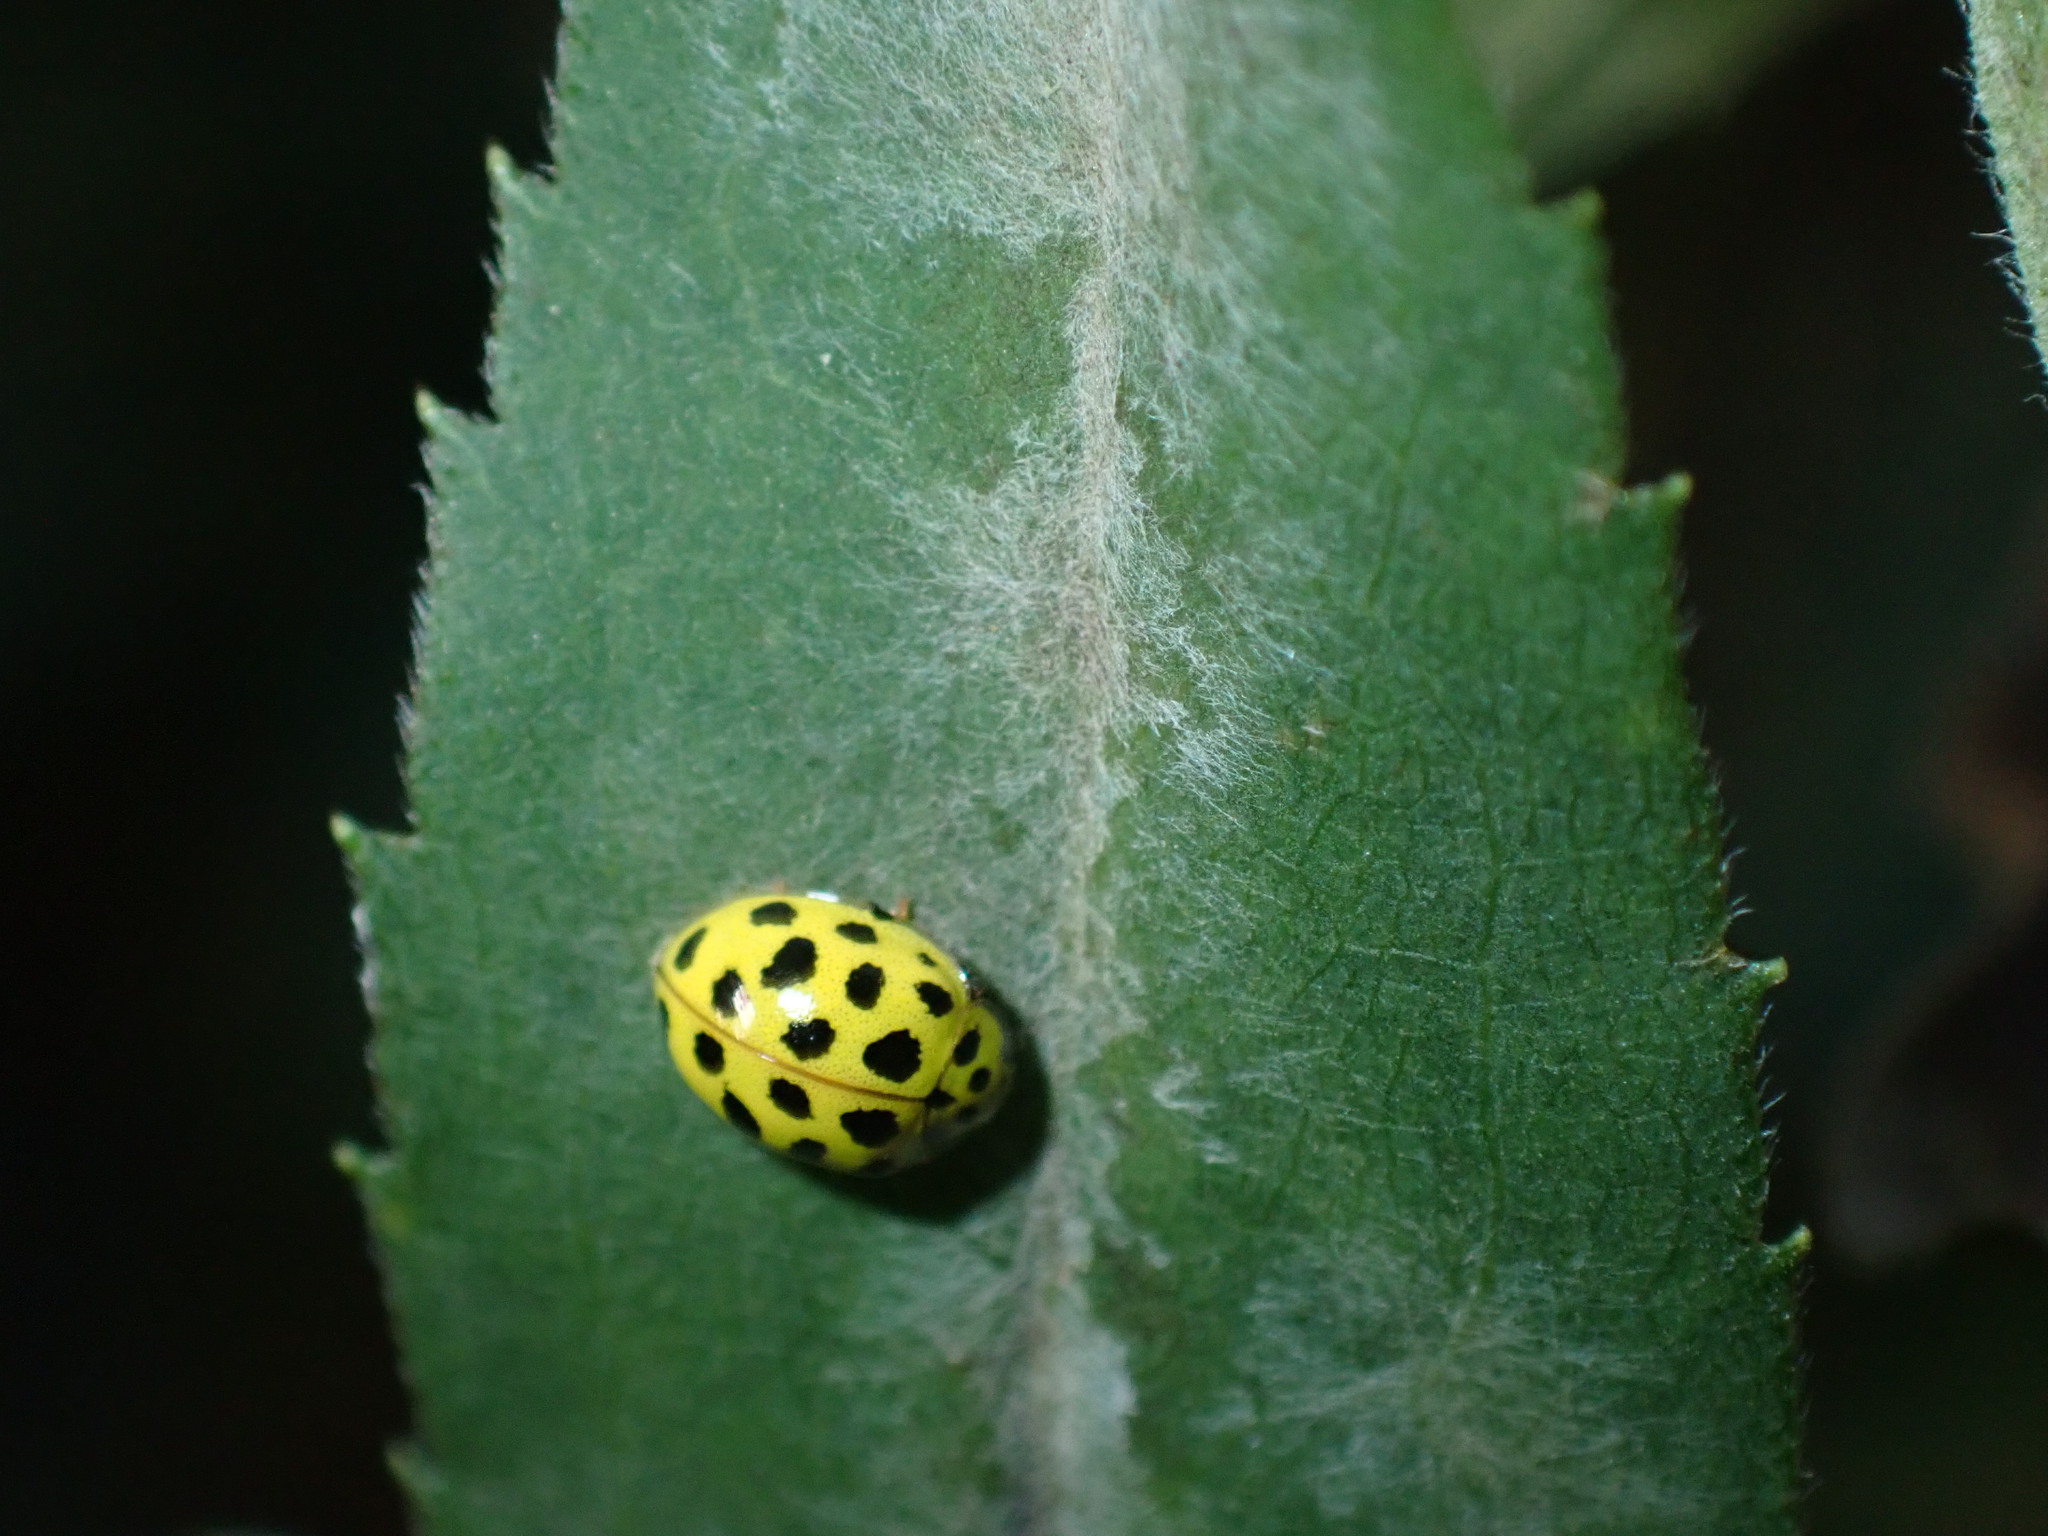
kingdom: Animalia
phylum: Arthropoda
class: Insecta
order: Coleoptera
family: Coccinellidae
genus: Psyllobora
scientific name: Psyllobora vigintiduopunctata
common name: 22-spot ladybird
